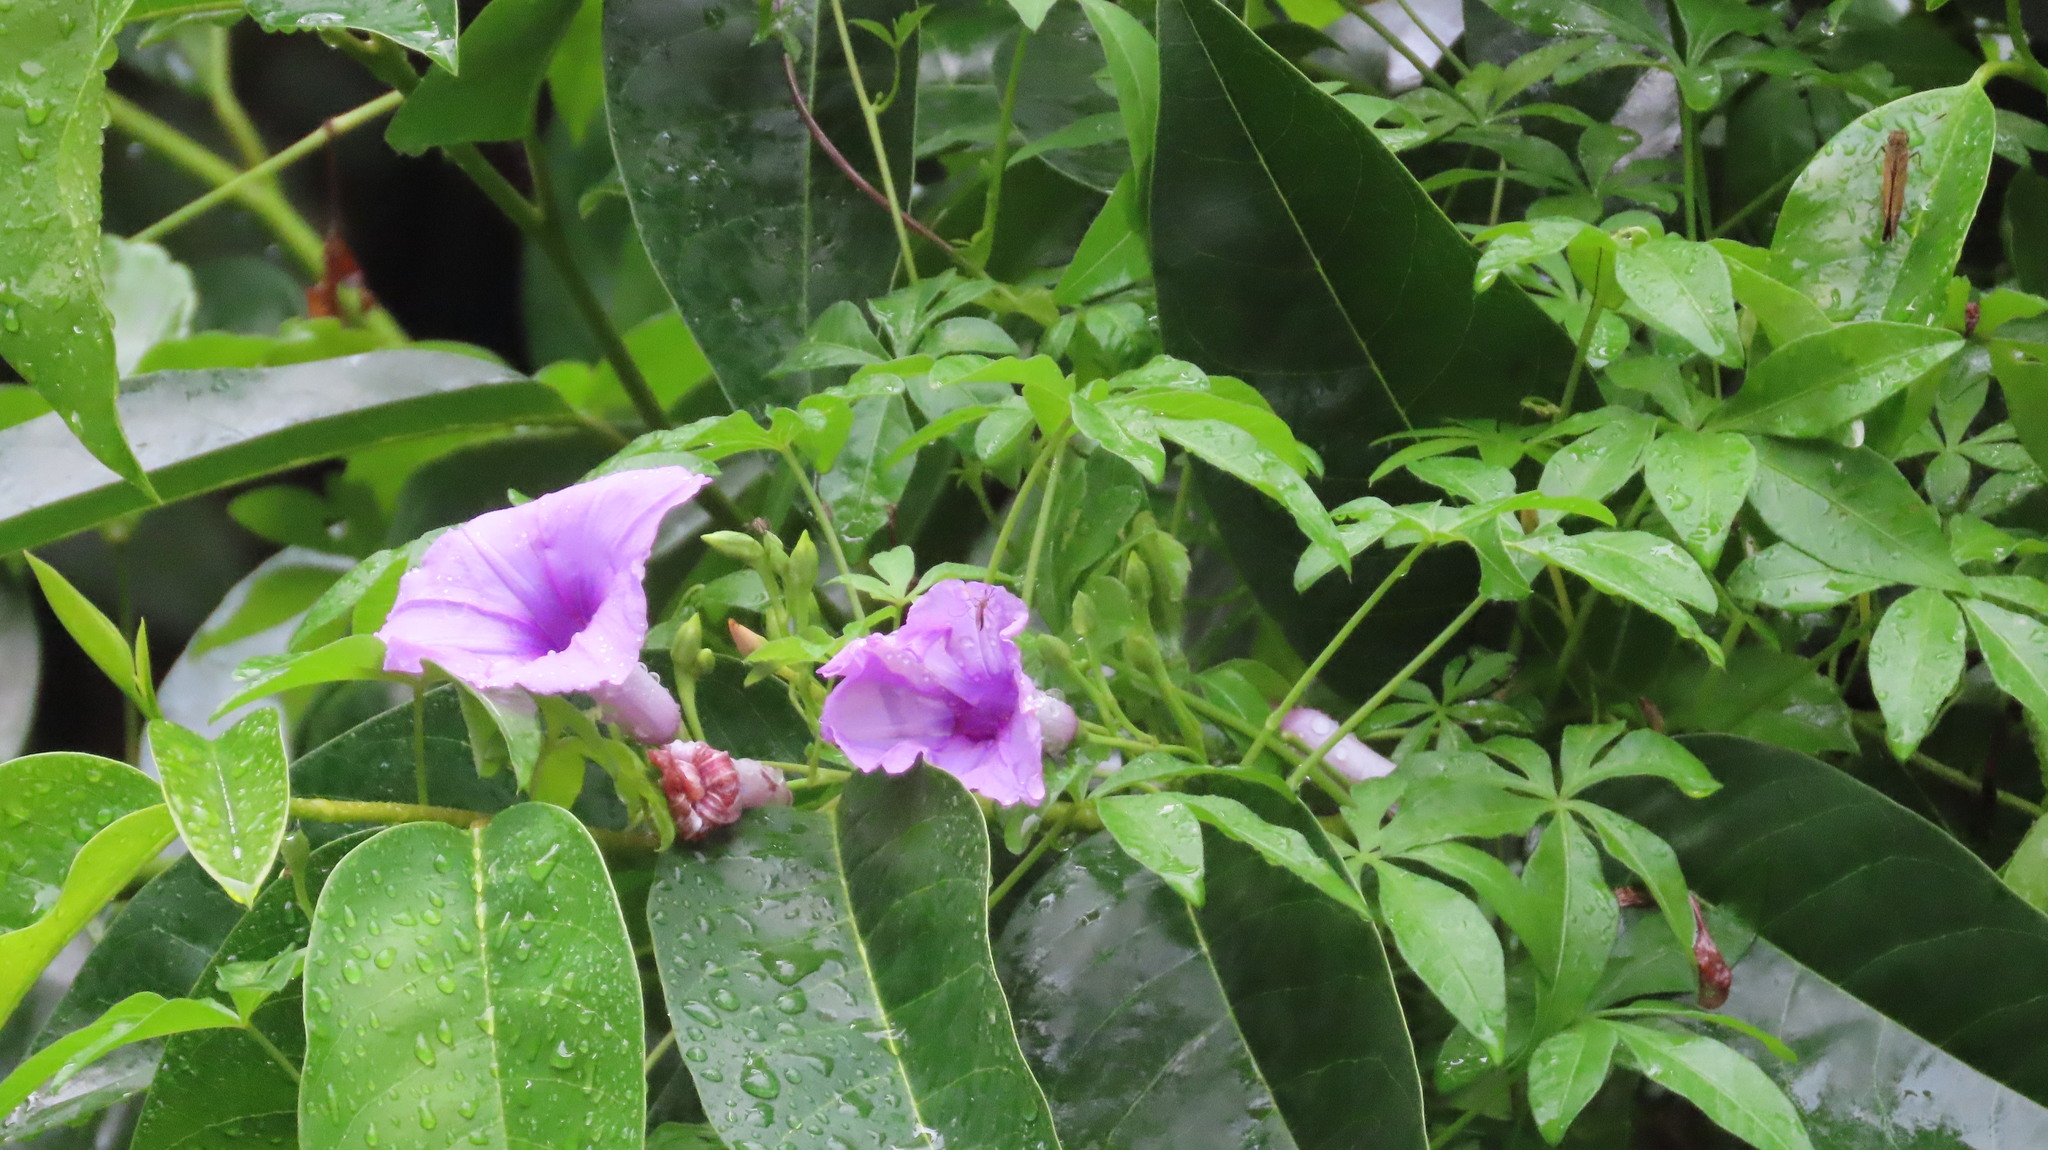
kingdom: Plantae
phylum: Tracheophyta
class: Magnoliopsida
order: Solanales
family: Convolvulaceae
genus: Ipomoea
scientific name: Ipomoea cairica
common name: Mile a minute vine
